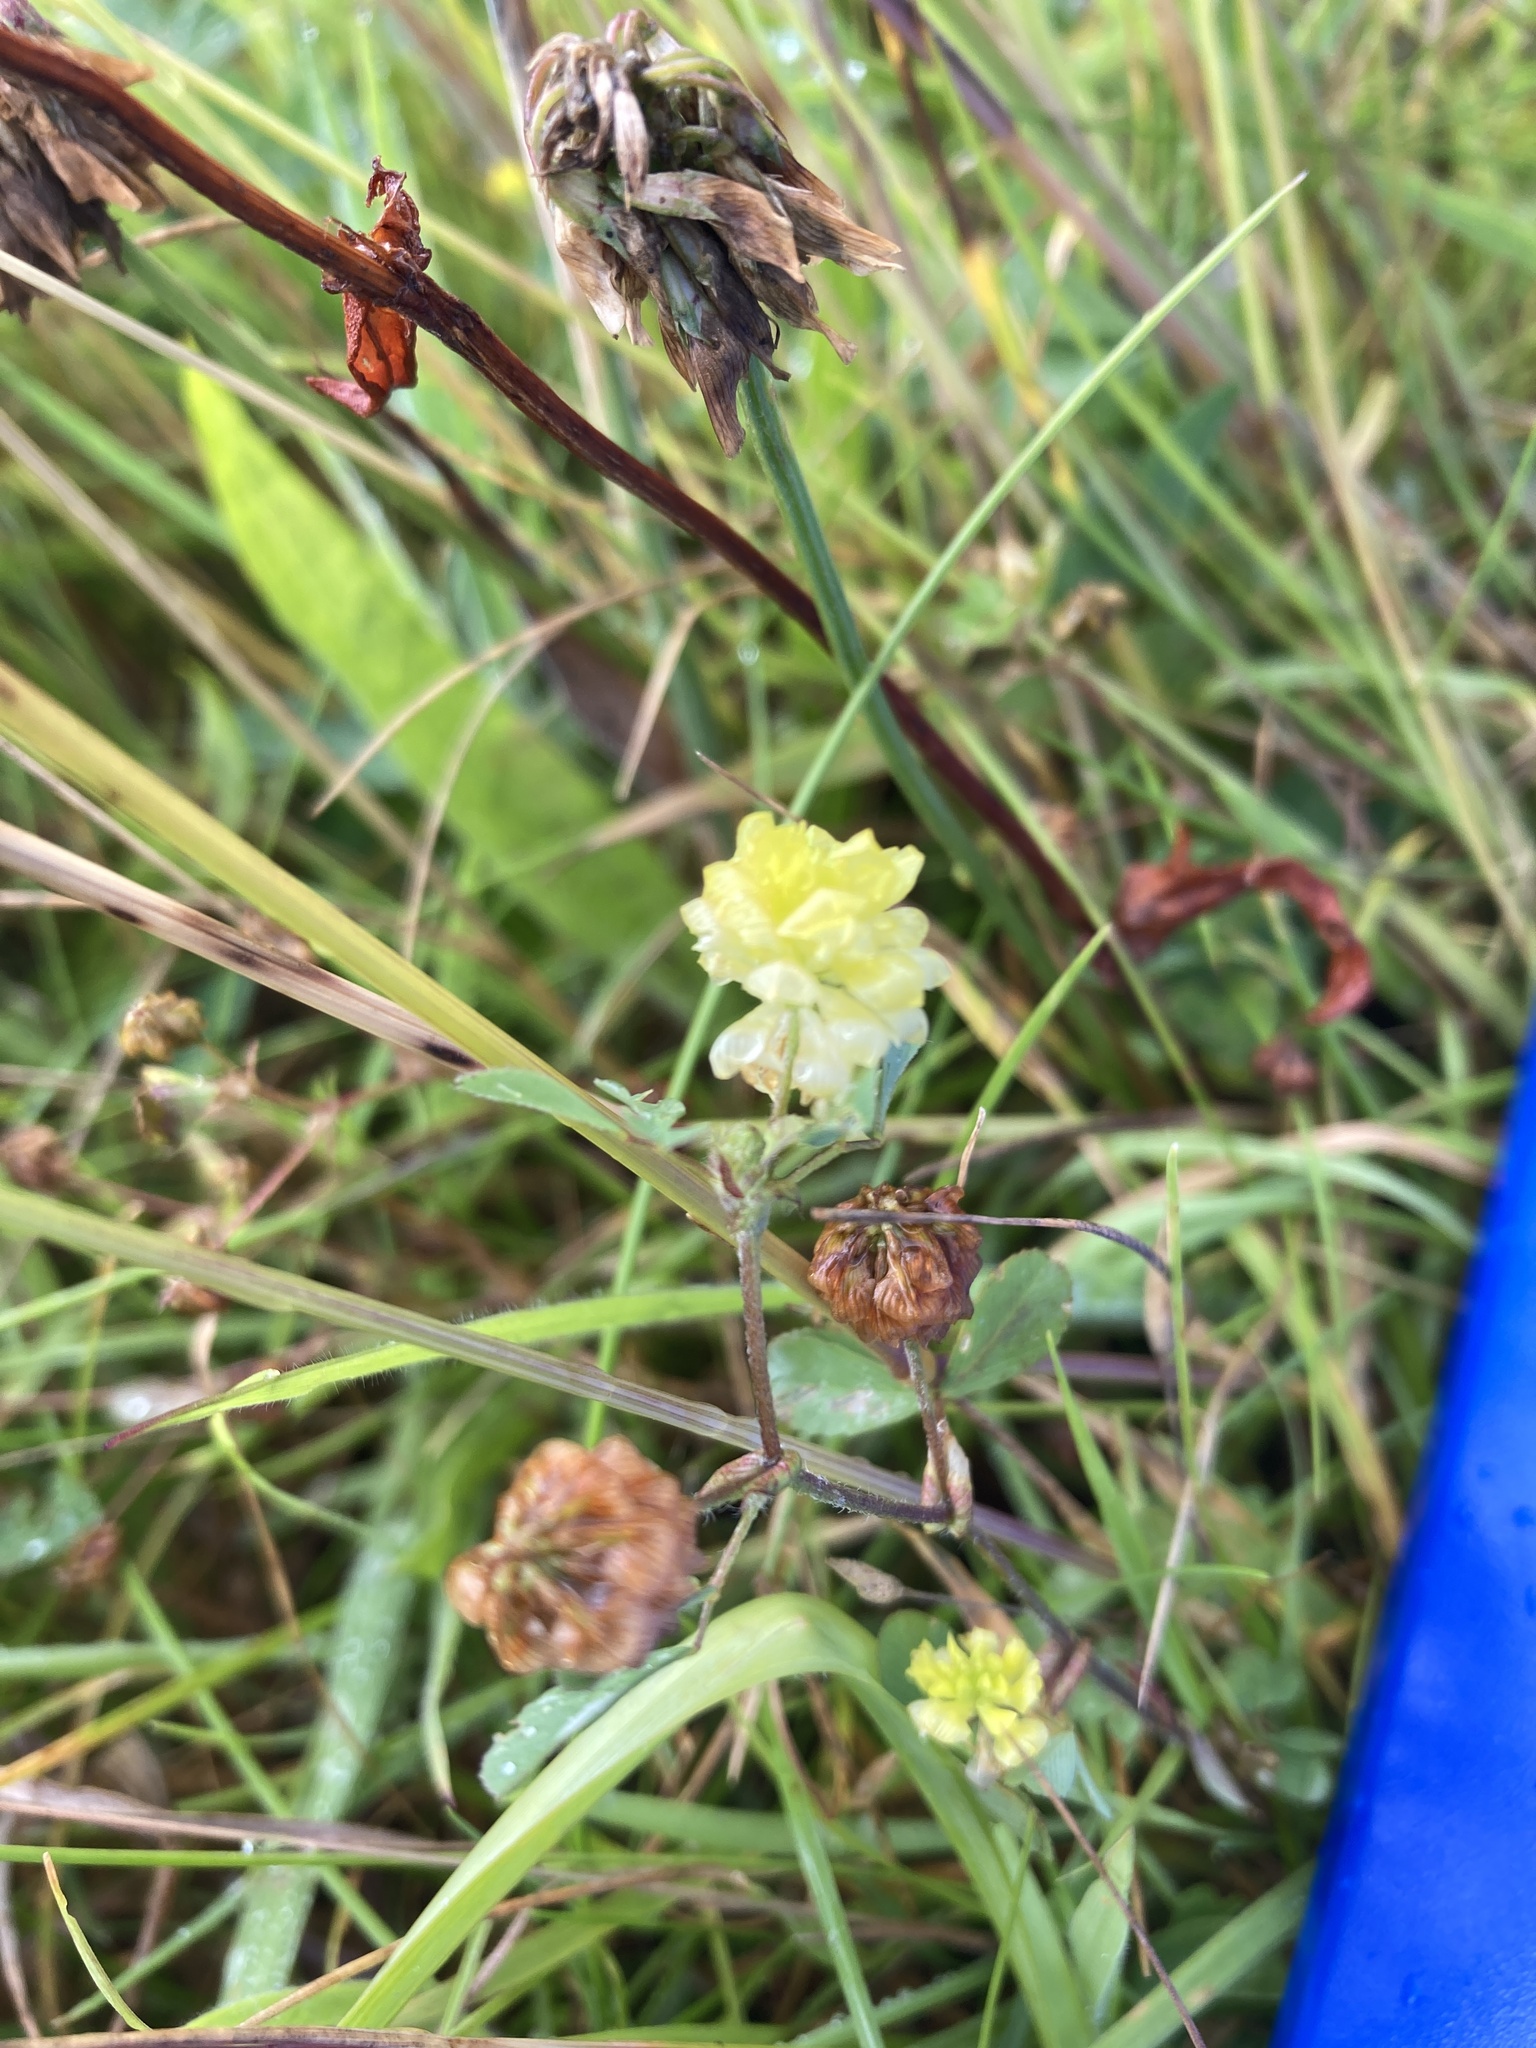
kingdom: Plantae
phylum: Tracheophyta
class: Magnoliopsida
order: Fabales
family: Fabaceae
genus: Trifolium
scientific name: Trifolium campestre
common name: Field clover
